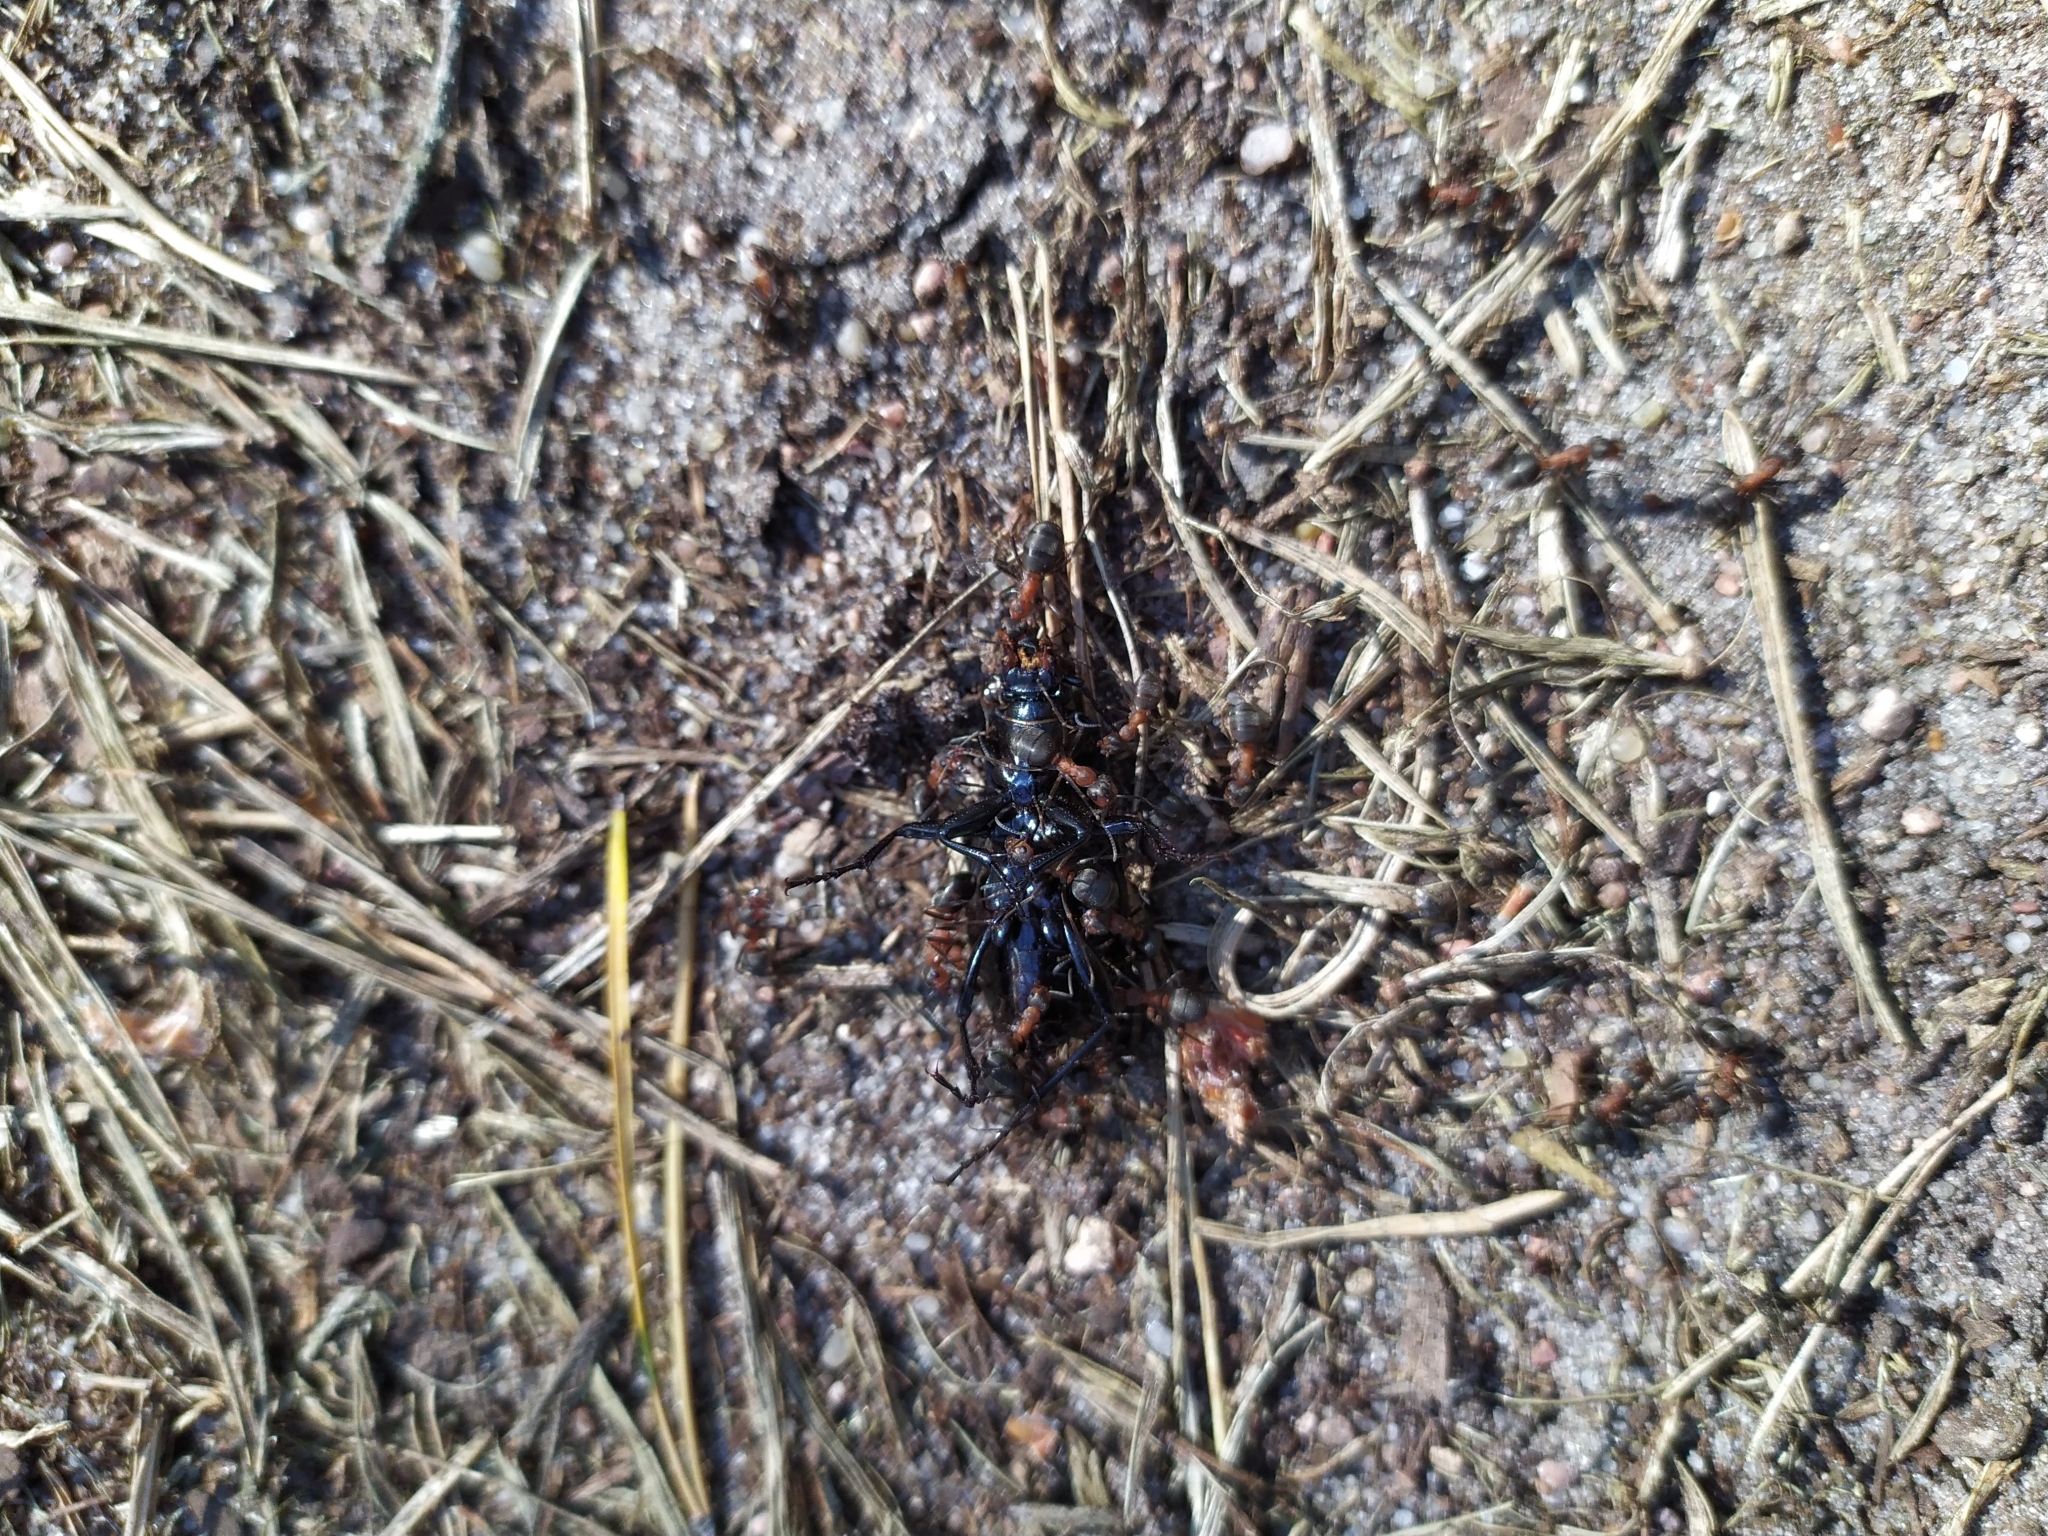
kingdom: Animalia
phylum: Arthropoda
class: Insecta
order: Coleoptera
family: Carabidae
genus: Carabus
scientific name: Carabus nemoralis
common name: European ground beetle
